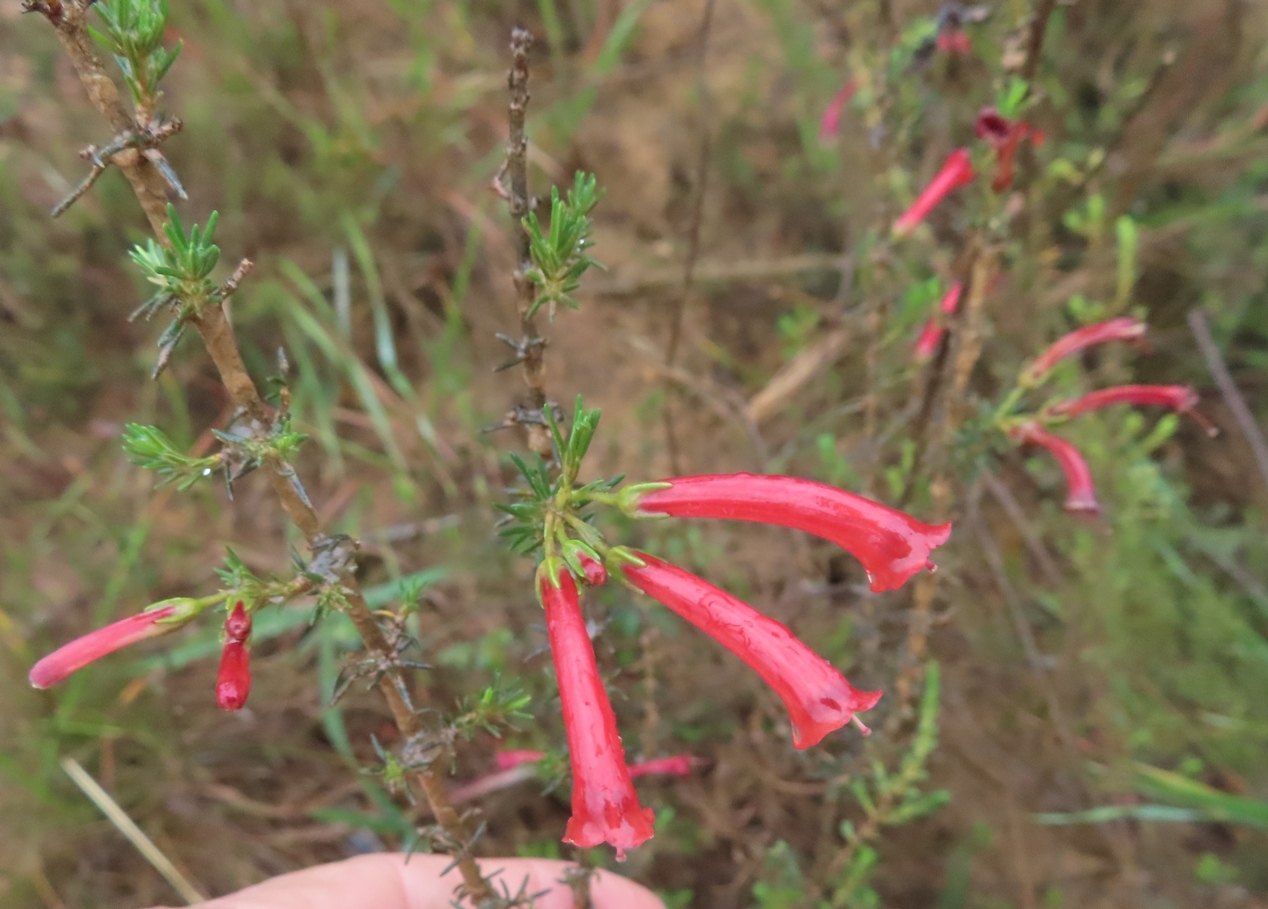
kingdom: Plantae
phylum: Tracheophyta
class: Magnoliopsida
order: Ericales
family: Ericaceae
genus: Erica
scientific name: Erica cruenta
